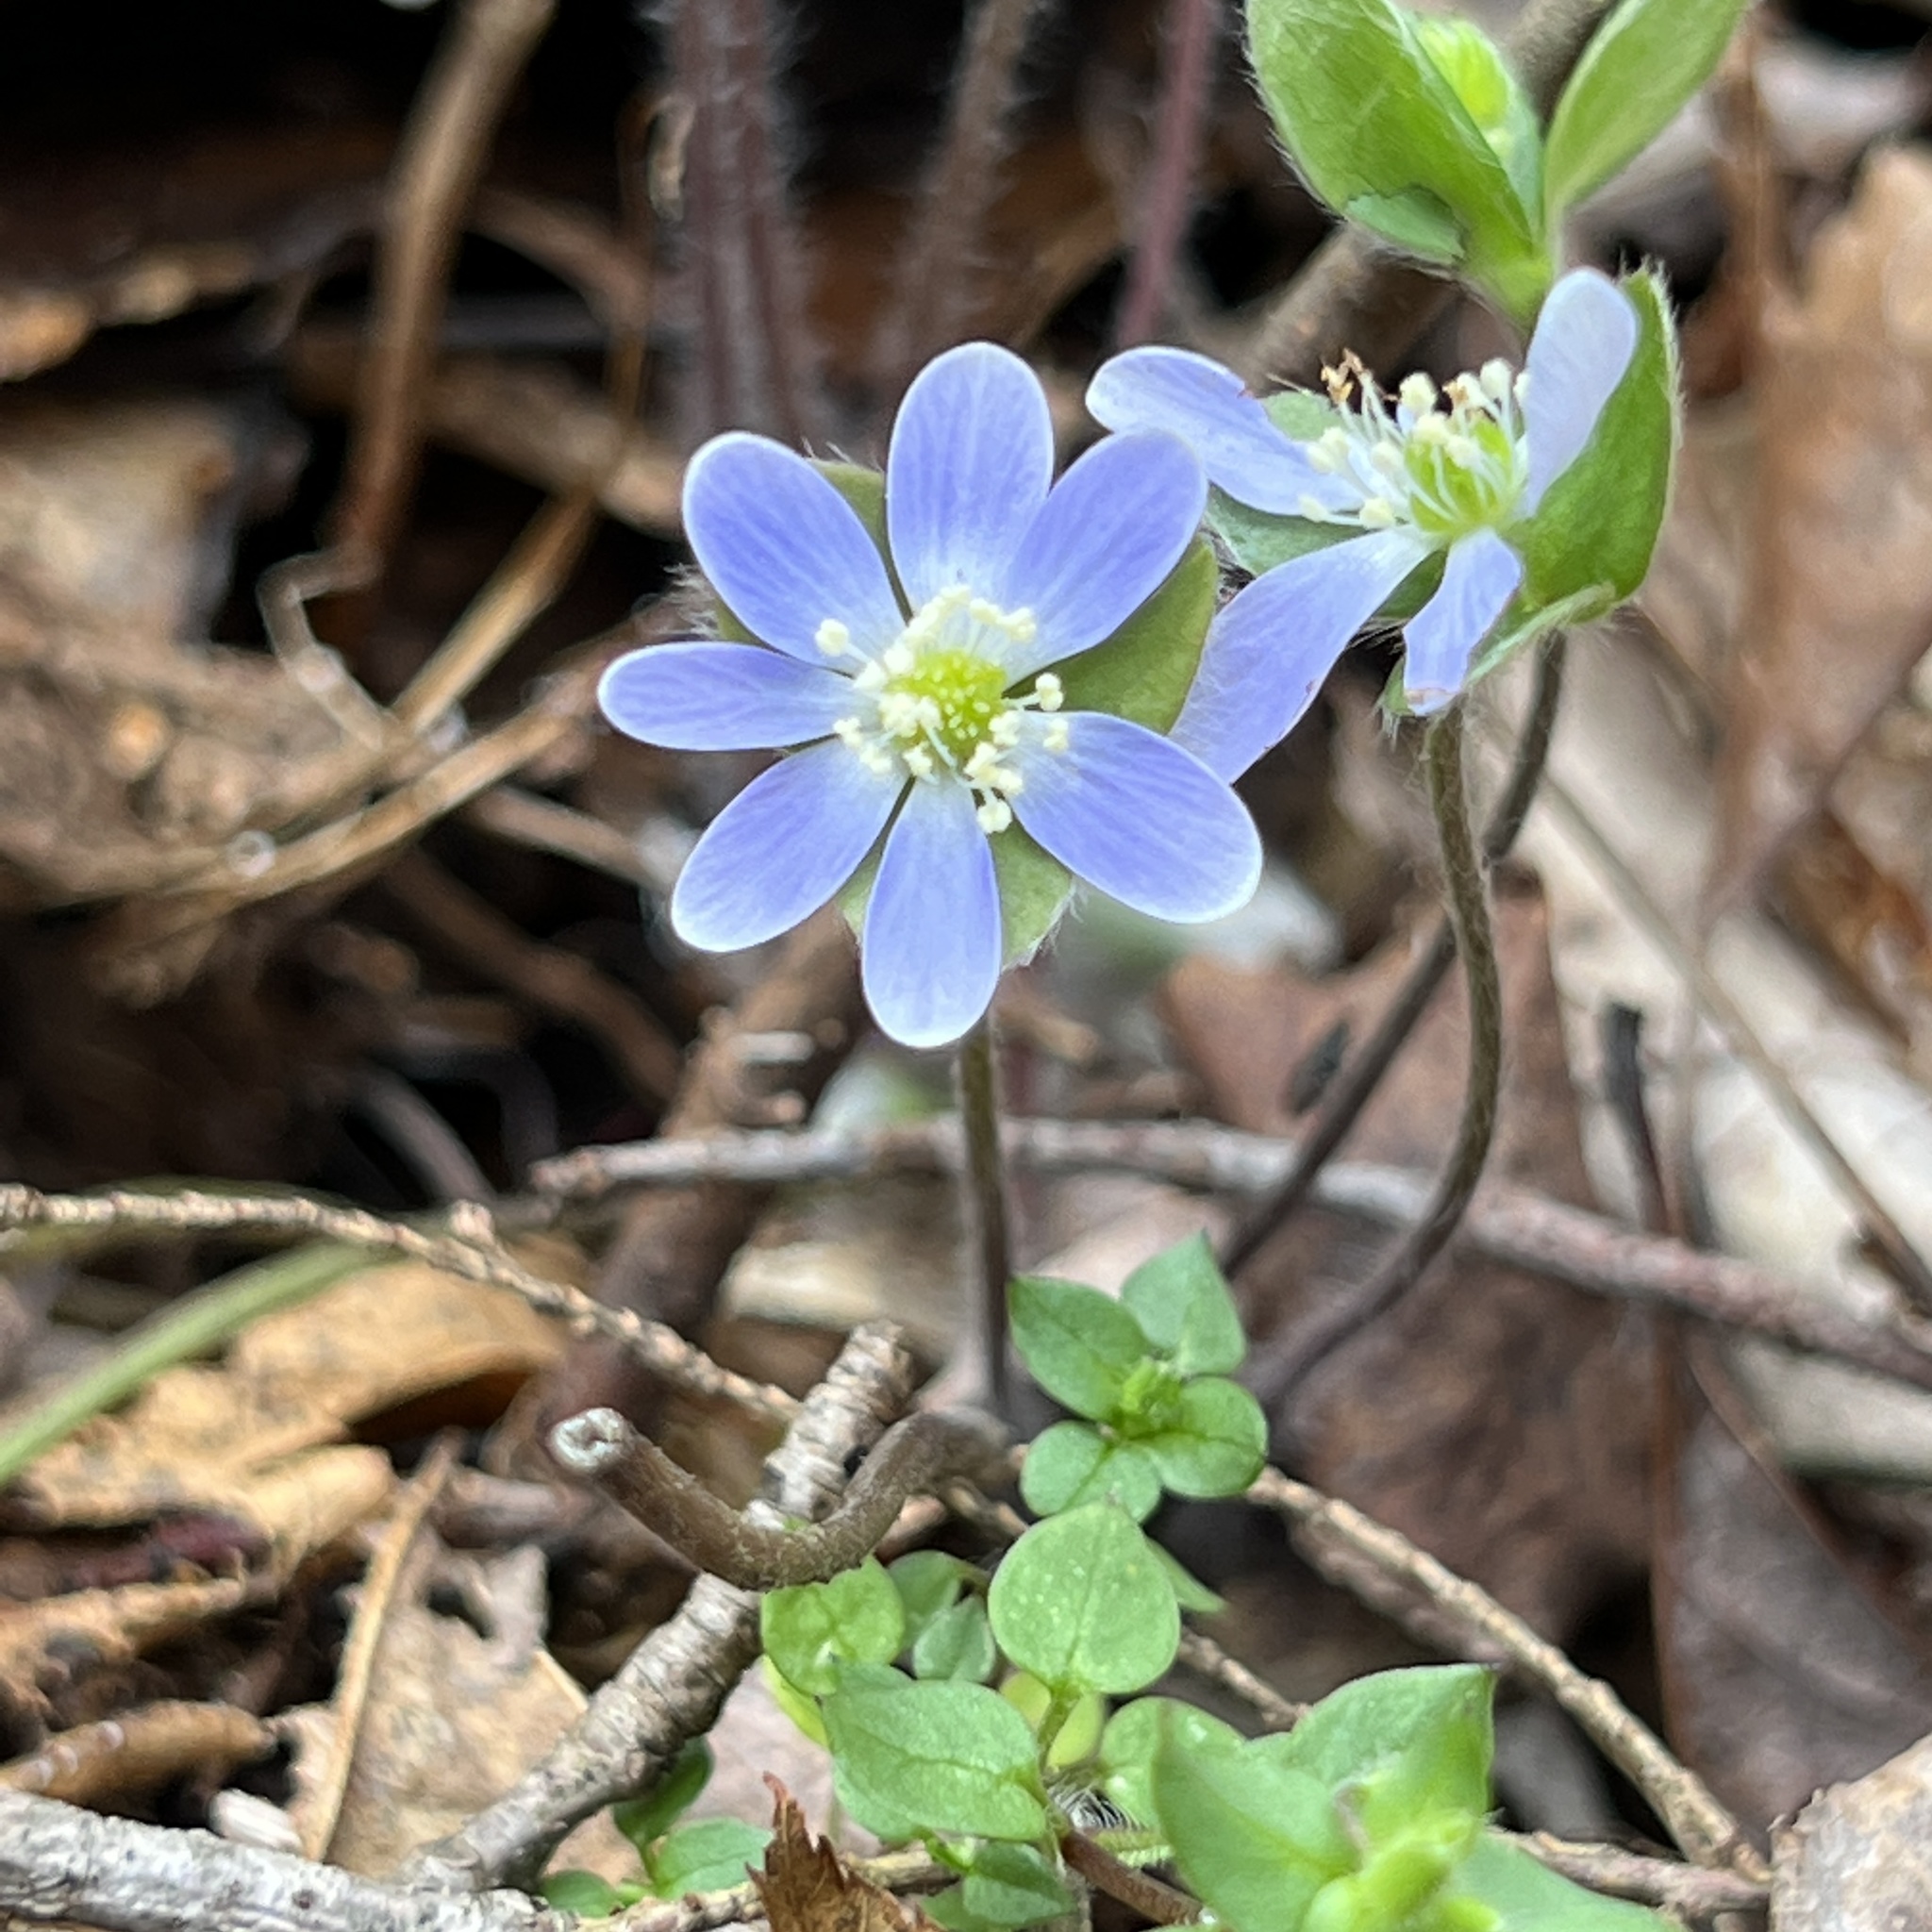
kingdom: Plantae
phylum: Tracheophyta
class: Magnoliopsida
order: Ranunculales
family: Ranunculaceae
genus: Hepatica
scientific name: Hepatica americana
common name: American hepatica
